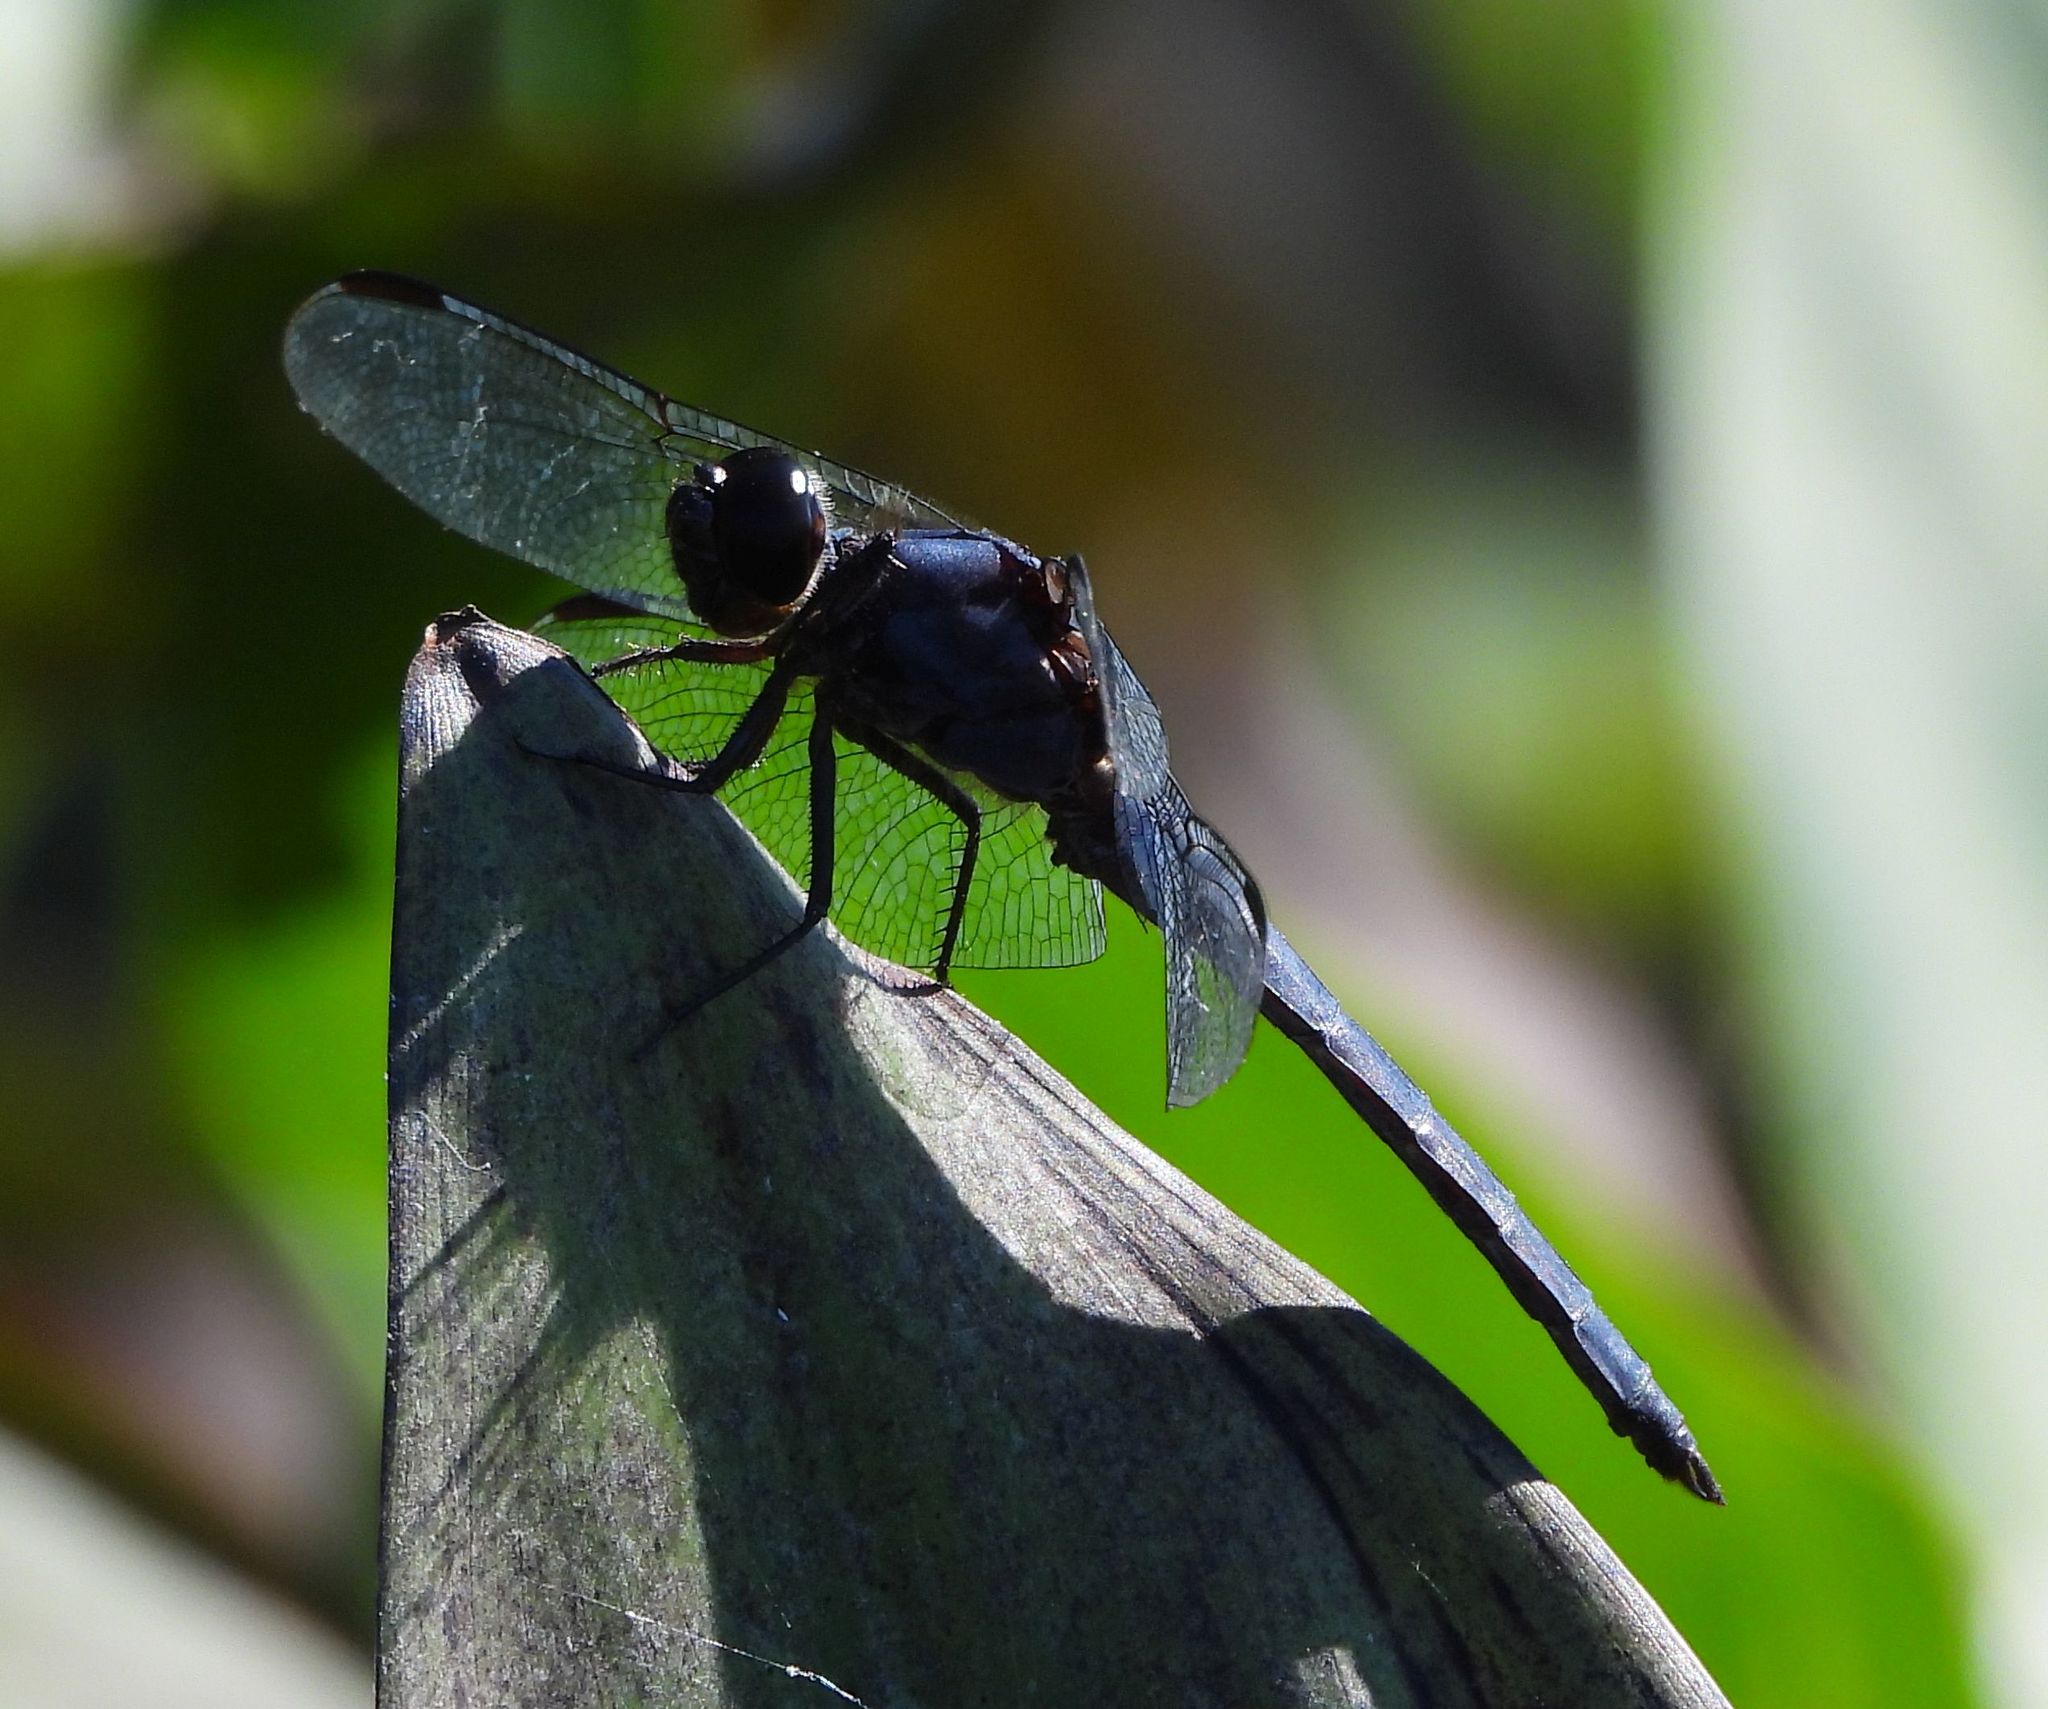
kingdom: Animalia
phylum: Arthropoda
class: Insecta
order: Odonata
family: Libellulidae
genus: Libellula
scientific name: Libellula incesta
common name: Slaty skimmer
